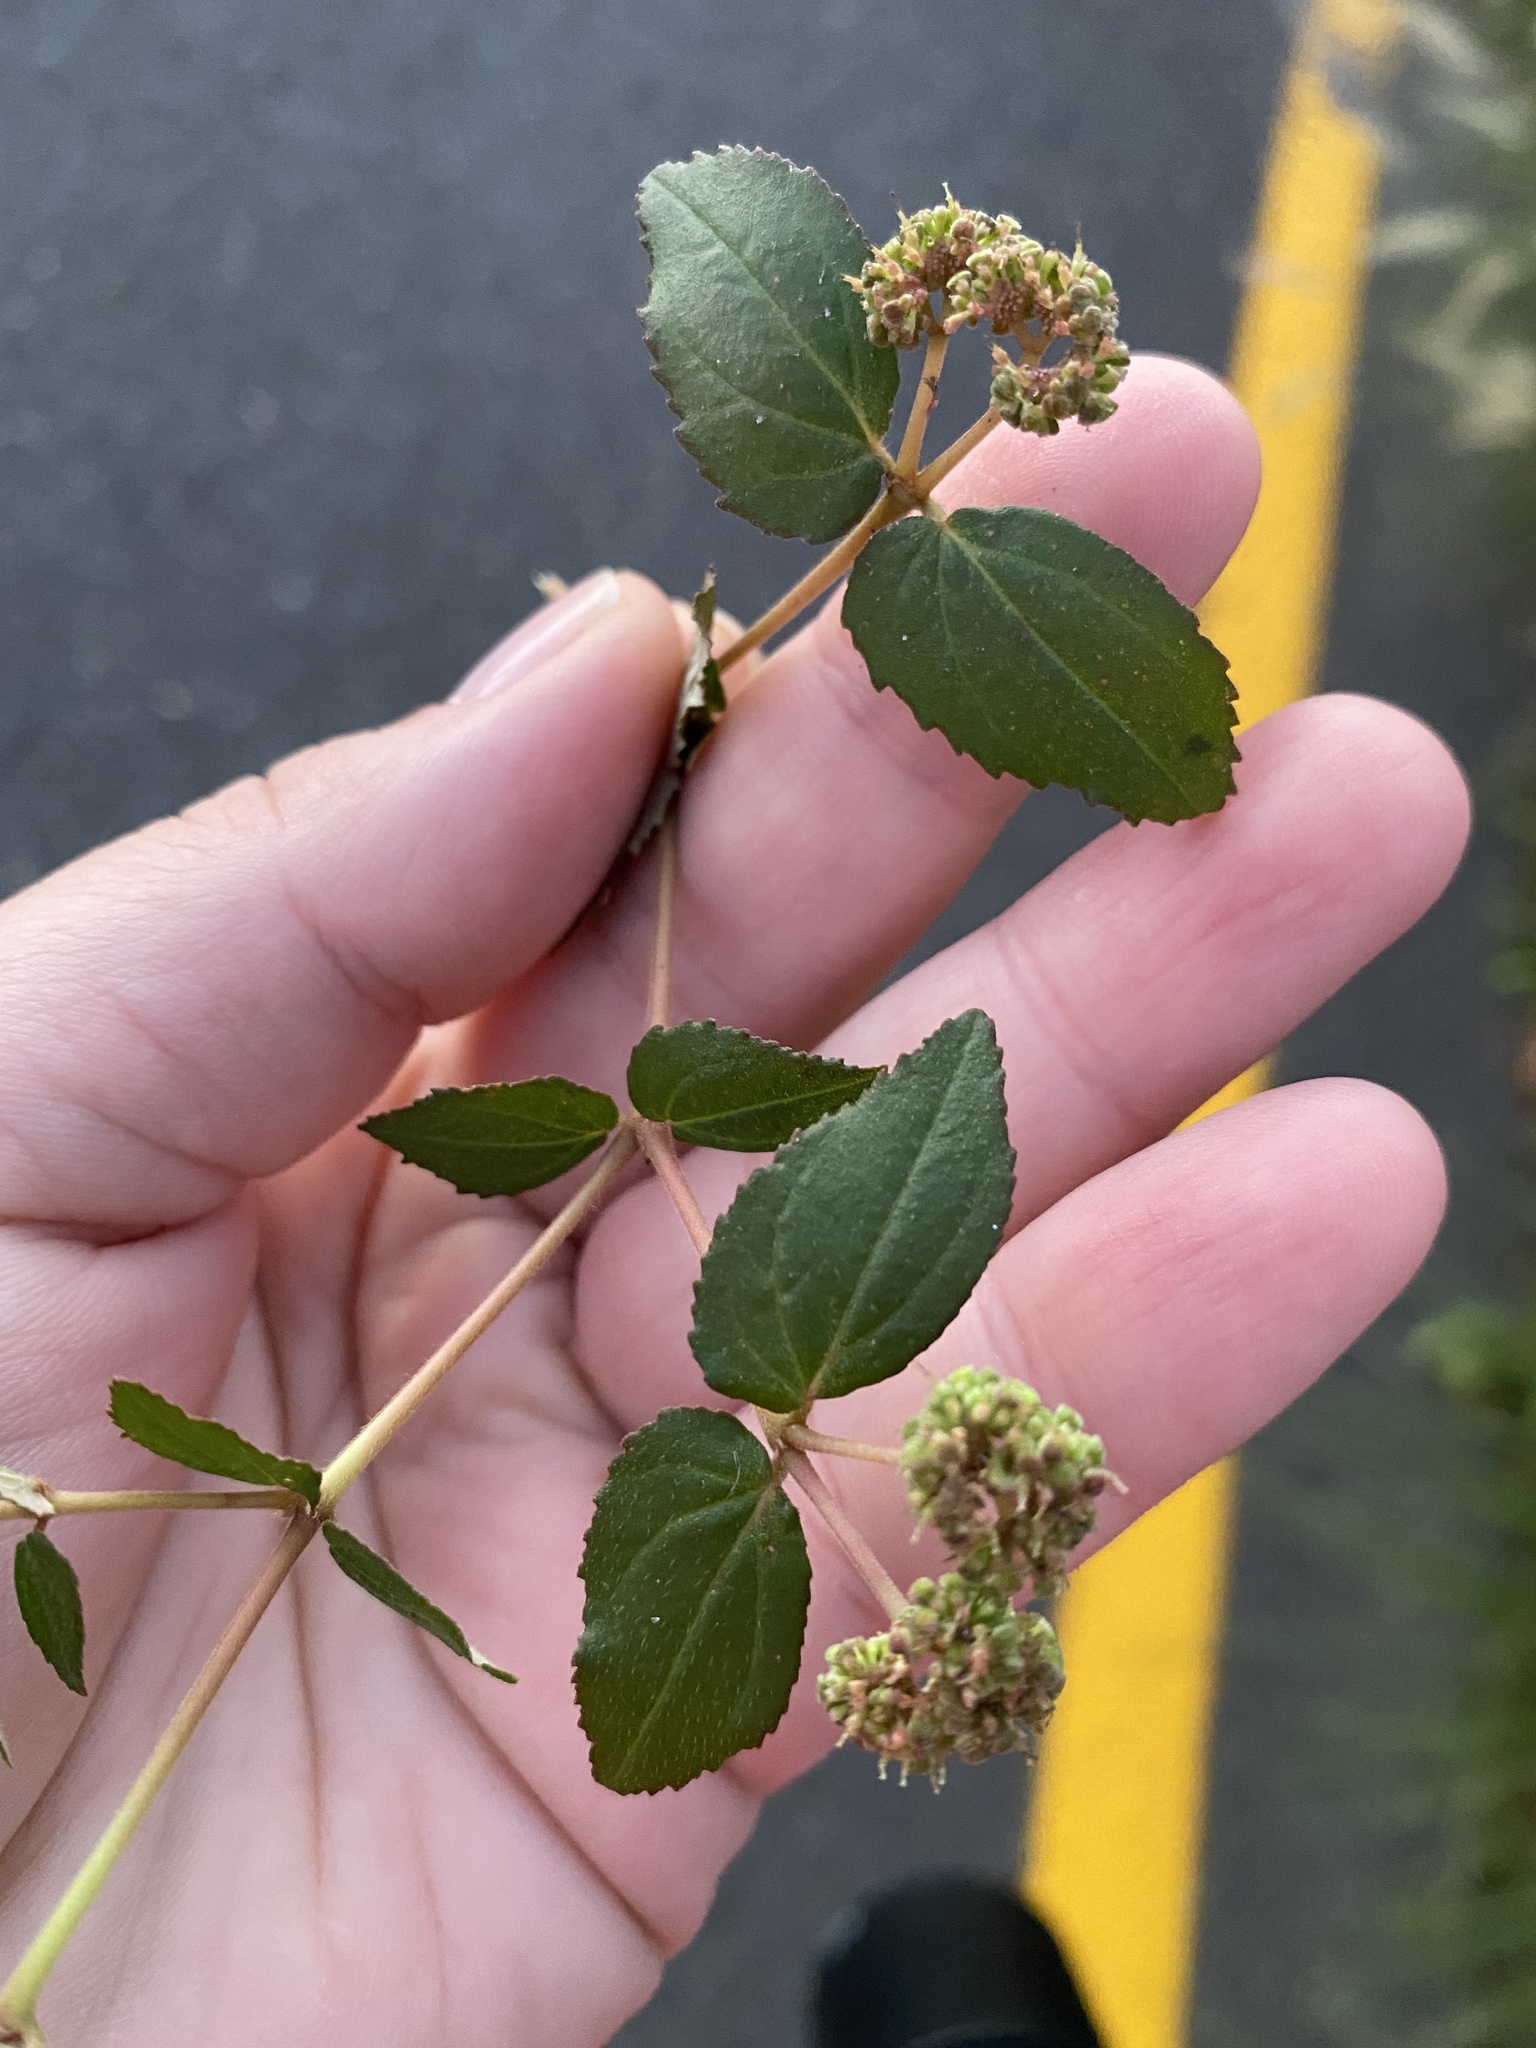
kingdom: Plantae
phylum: Tracheophyta
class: Magnoliopsida
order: Malpighiales
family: Euphorbiaceae
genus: Euphorbia
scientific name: Euphorbia ophthalmica
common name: Florida hammock sandmat
